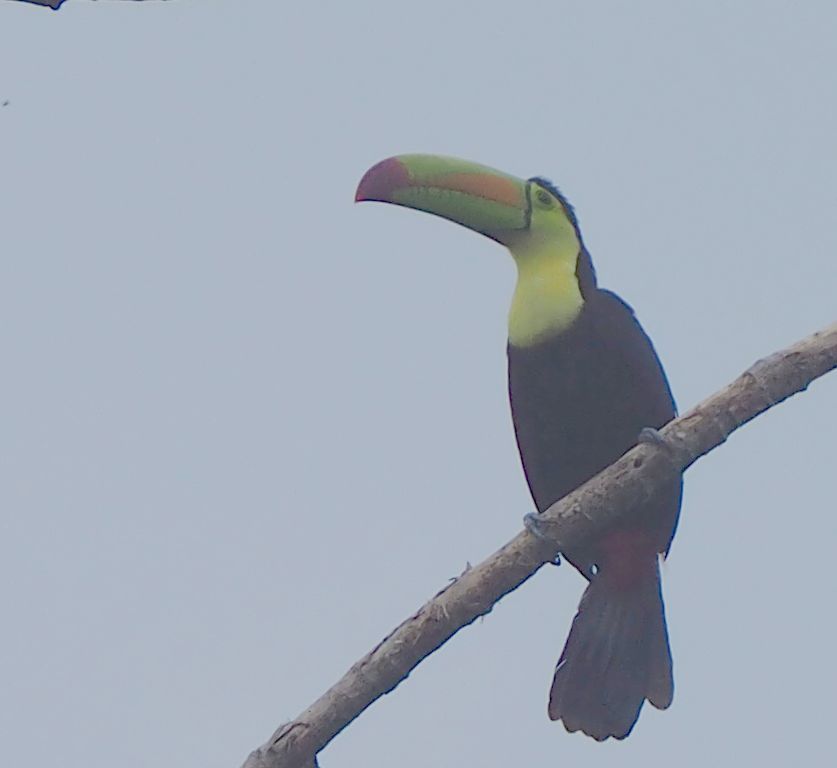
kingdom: Animalia
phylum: Chordata
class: Aves
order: Piciformes
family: Ramphastidae
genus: Ramphastos
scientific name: Ramphastos sulfuratus
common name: Keel-billed toucan
